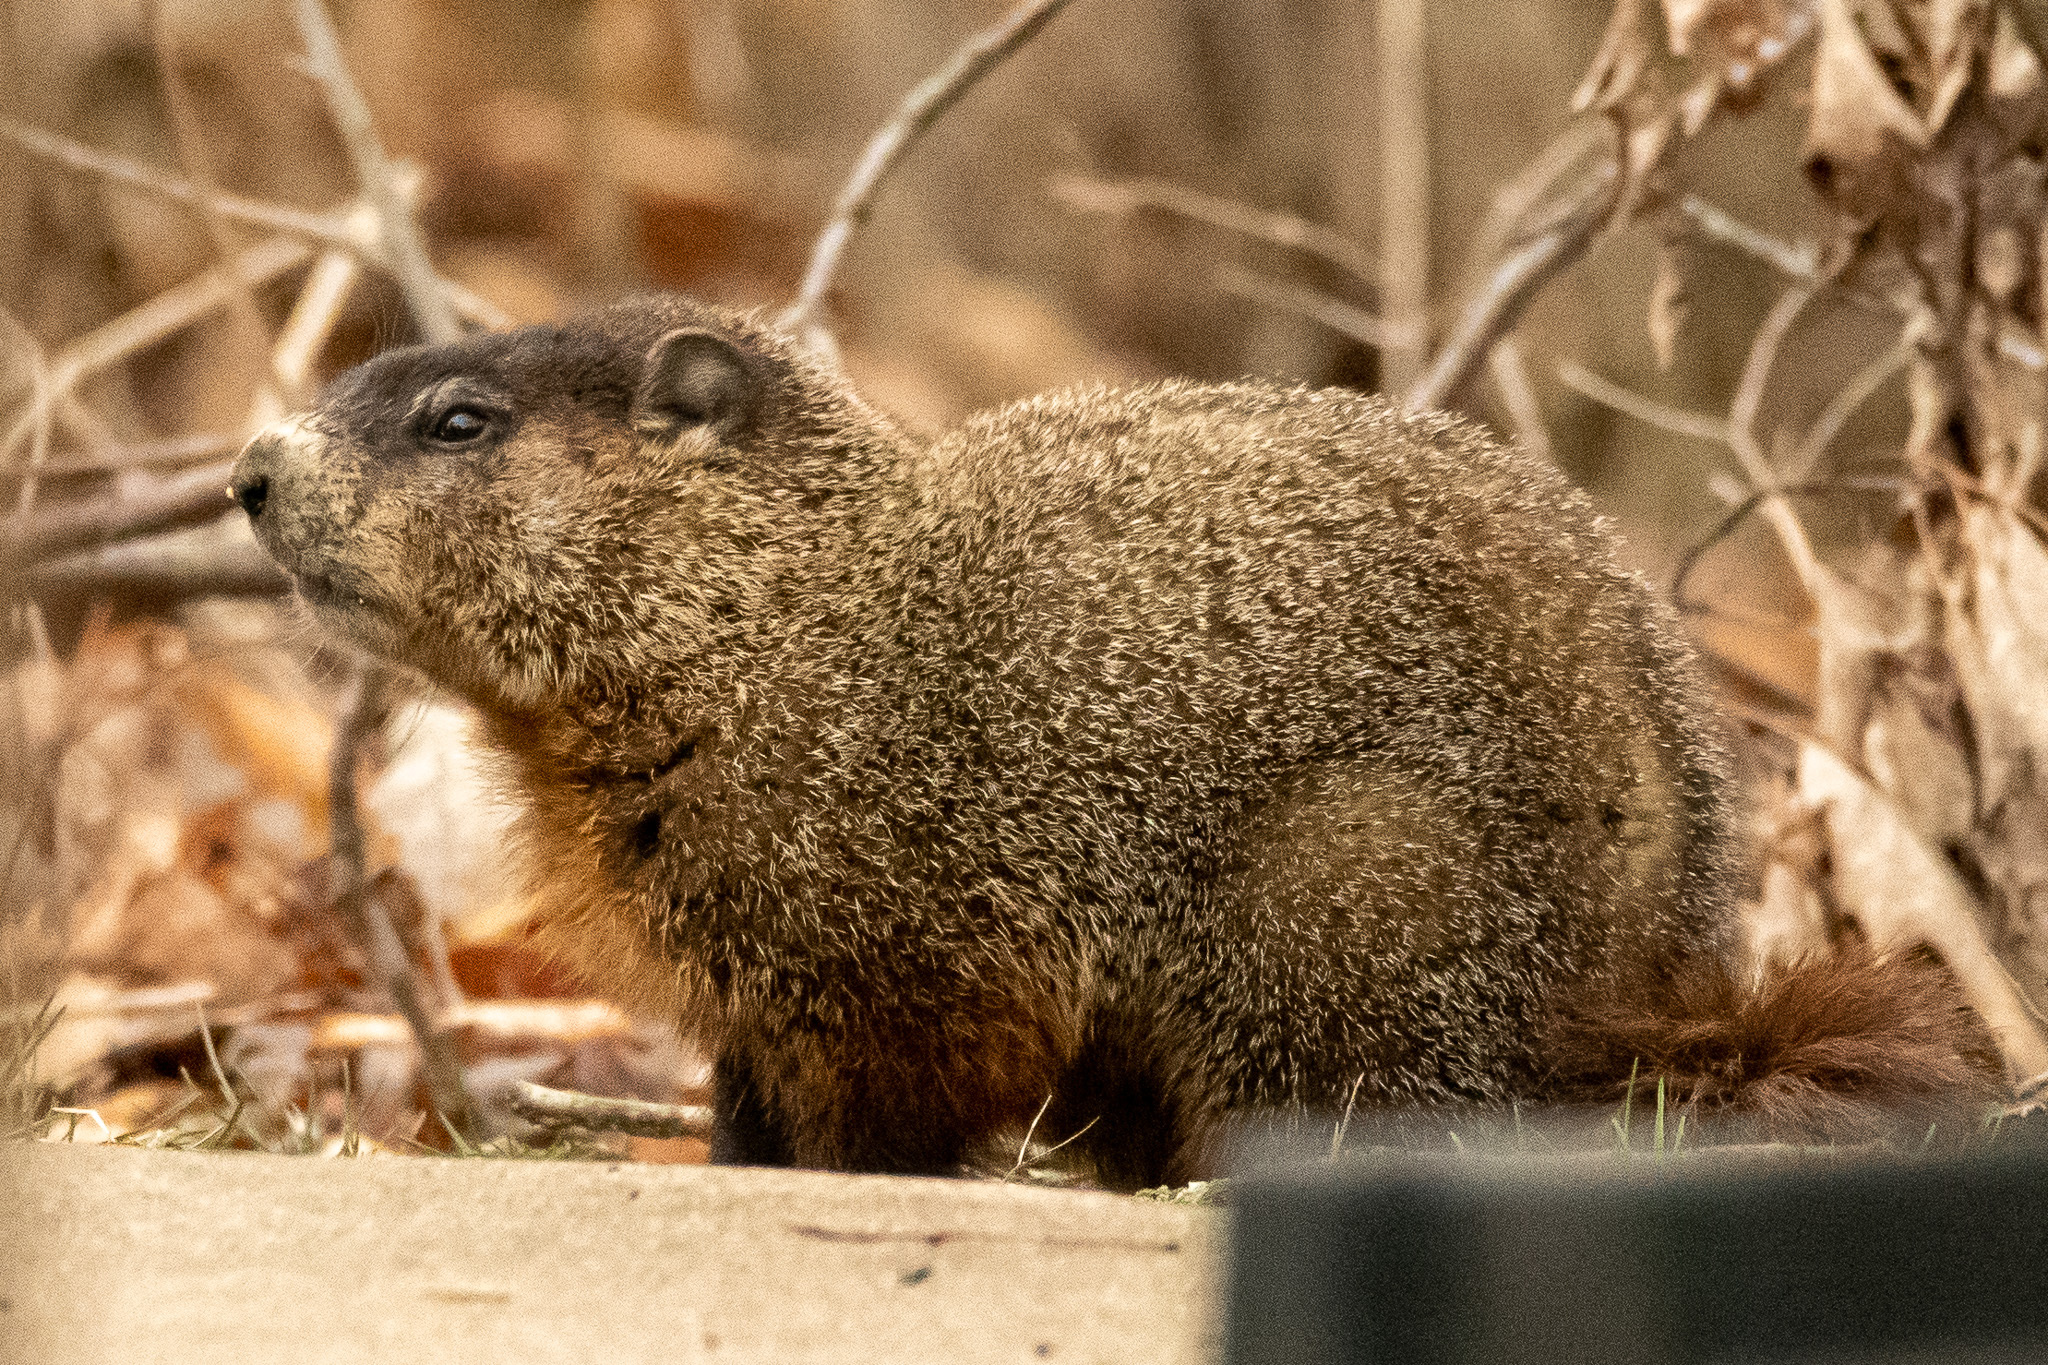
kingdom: Animalia
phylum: Chordata
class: Mammalia
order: Rodentia
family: Sciuridae
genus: Marmota
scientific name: Marmota monax
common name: Groundhog
